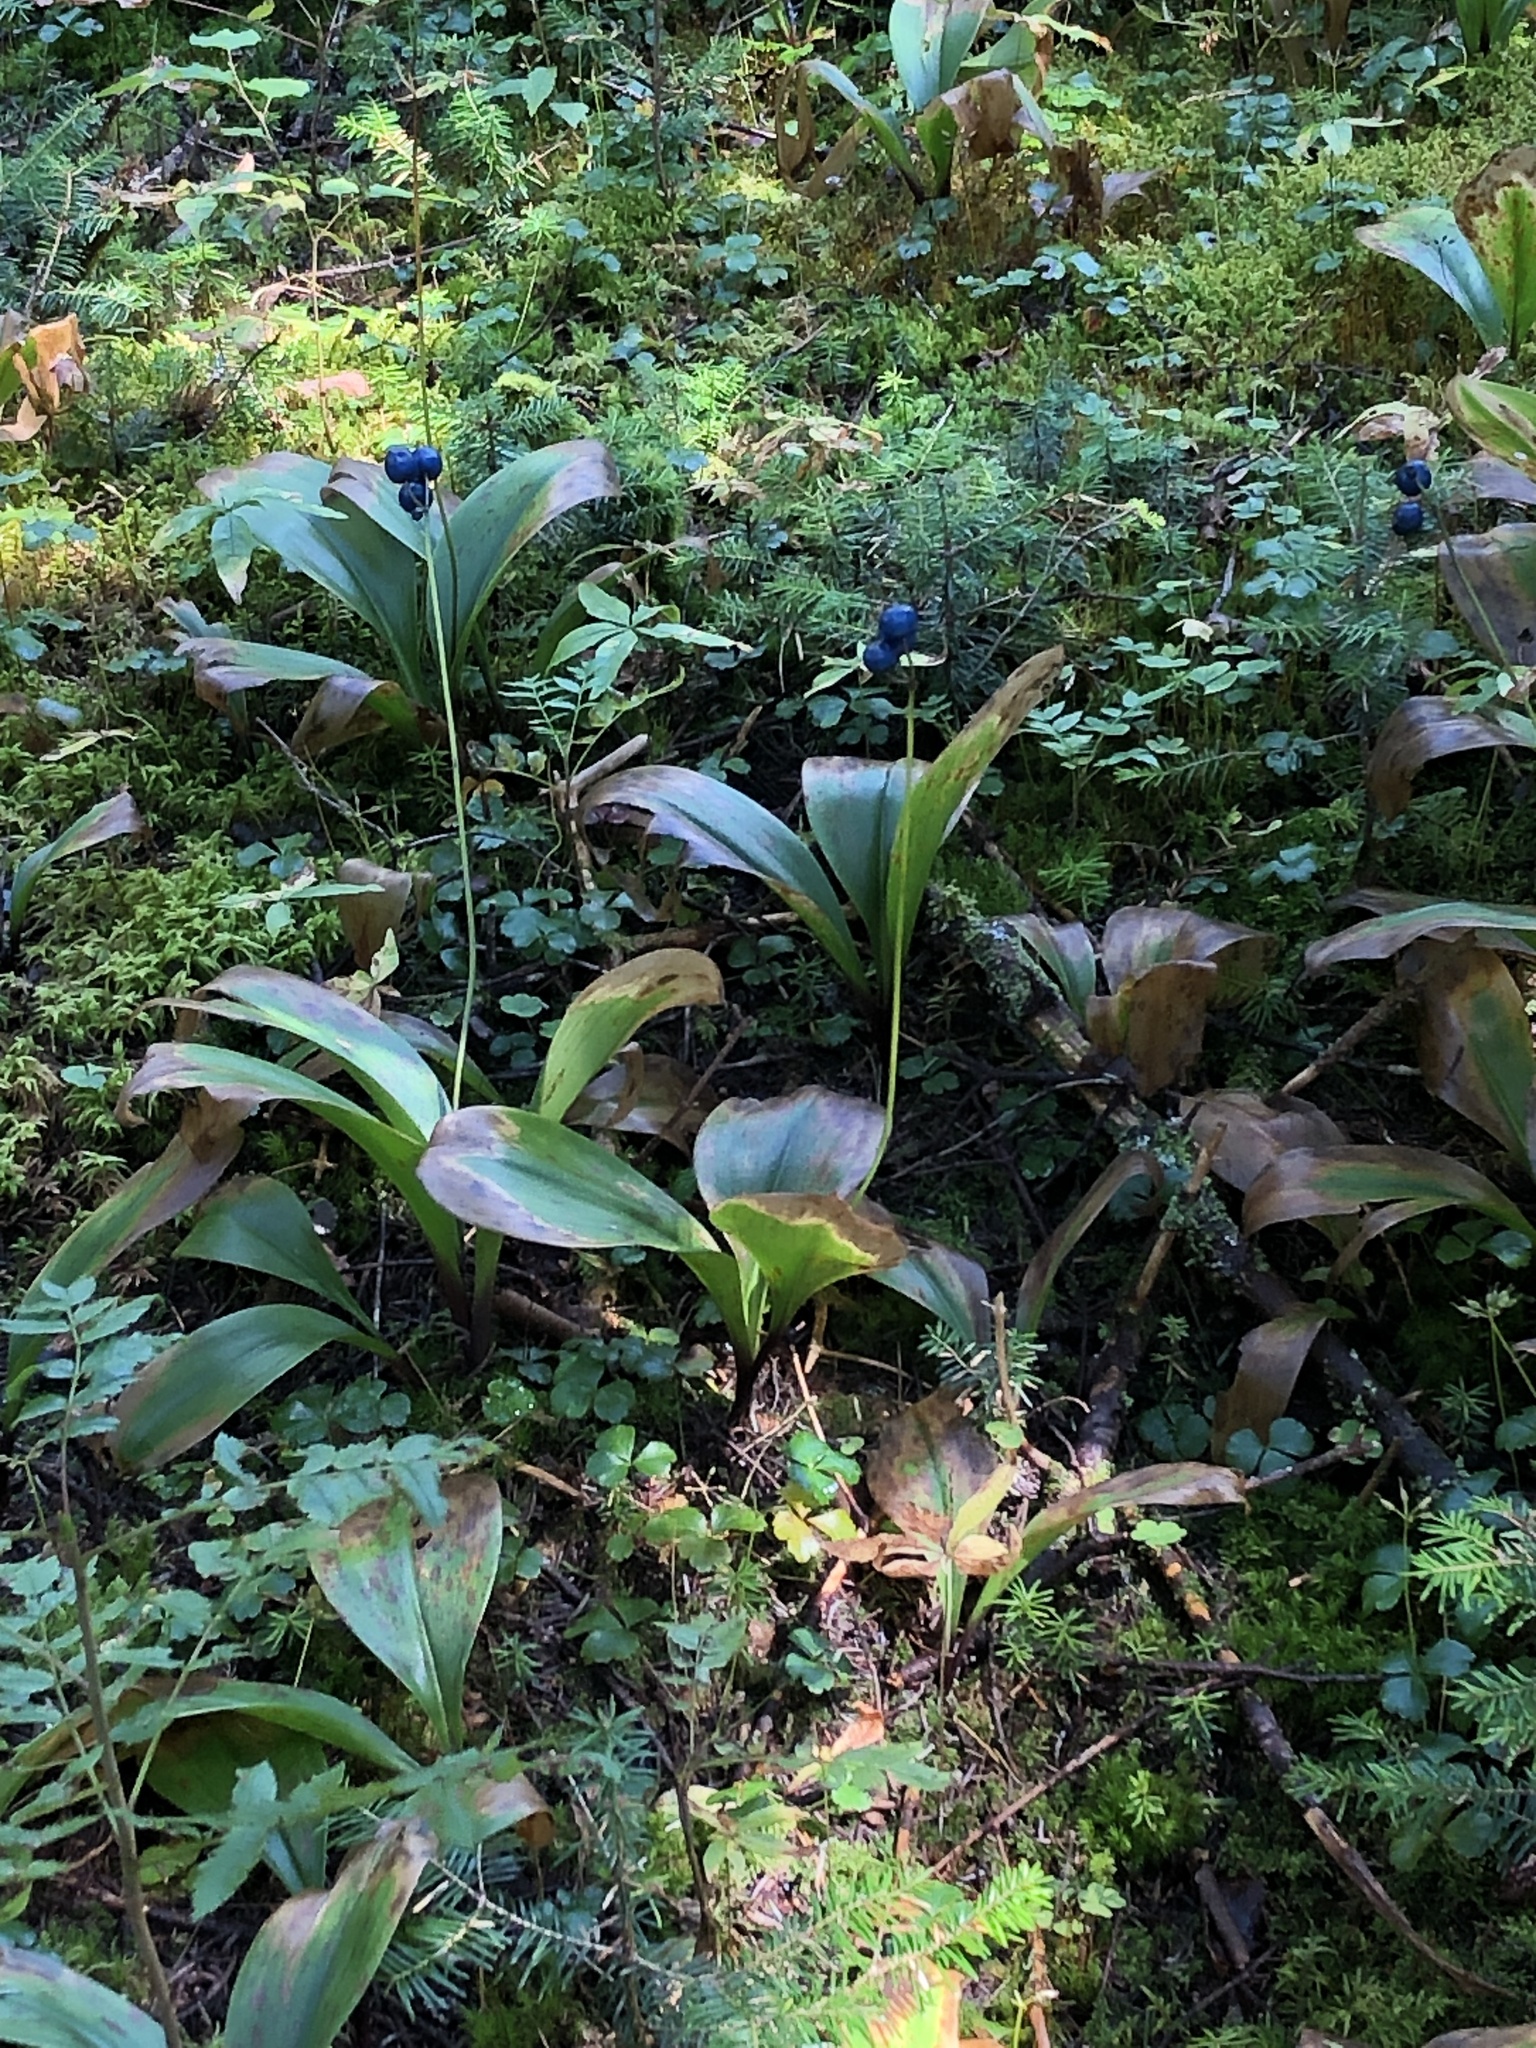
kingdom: Plantae
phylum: Tracheophyta
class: Liliopsida
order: Liliales
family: Liliaceae
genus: Clintonia
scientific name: Clintonia borealis
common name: Yellow clintonia
